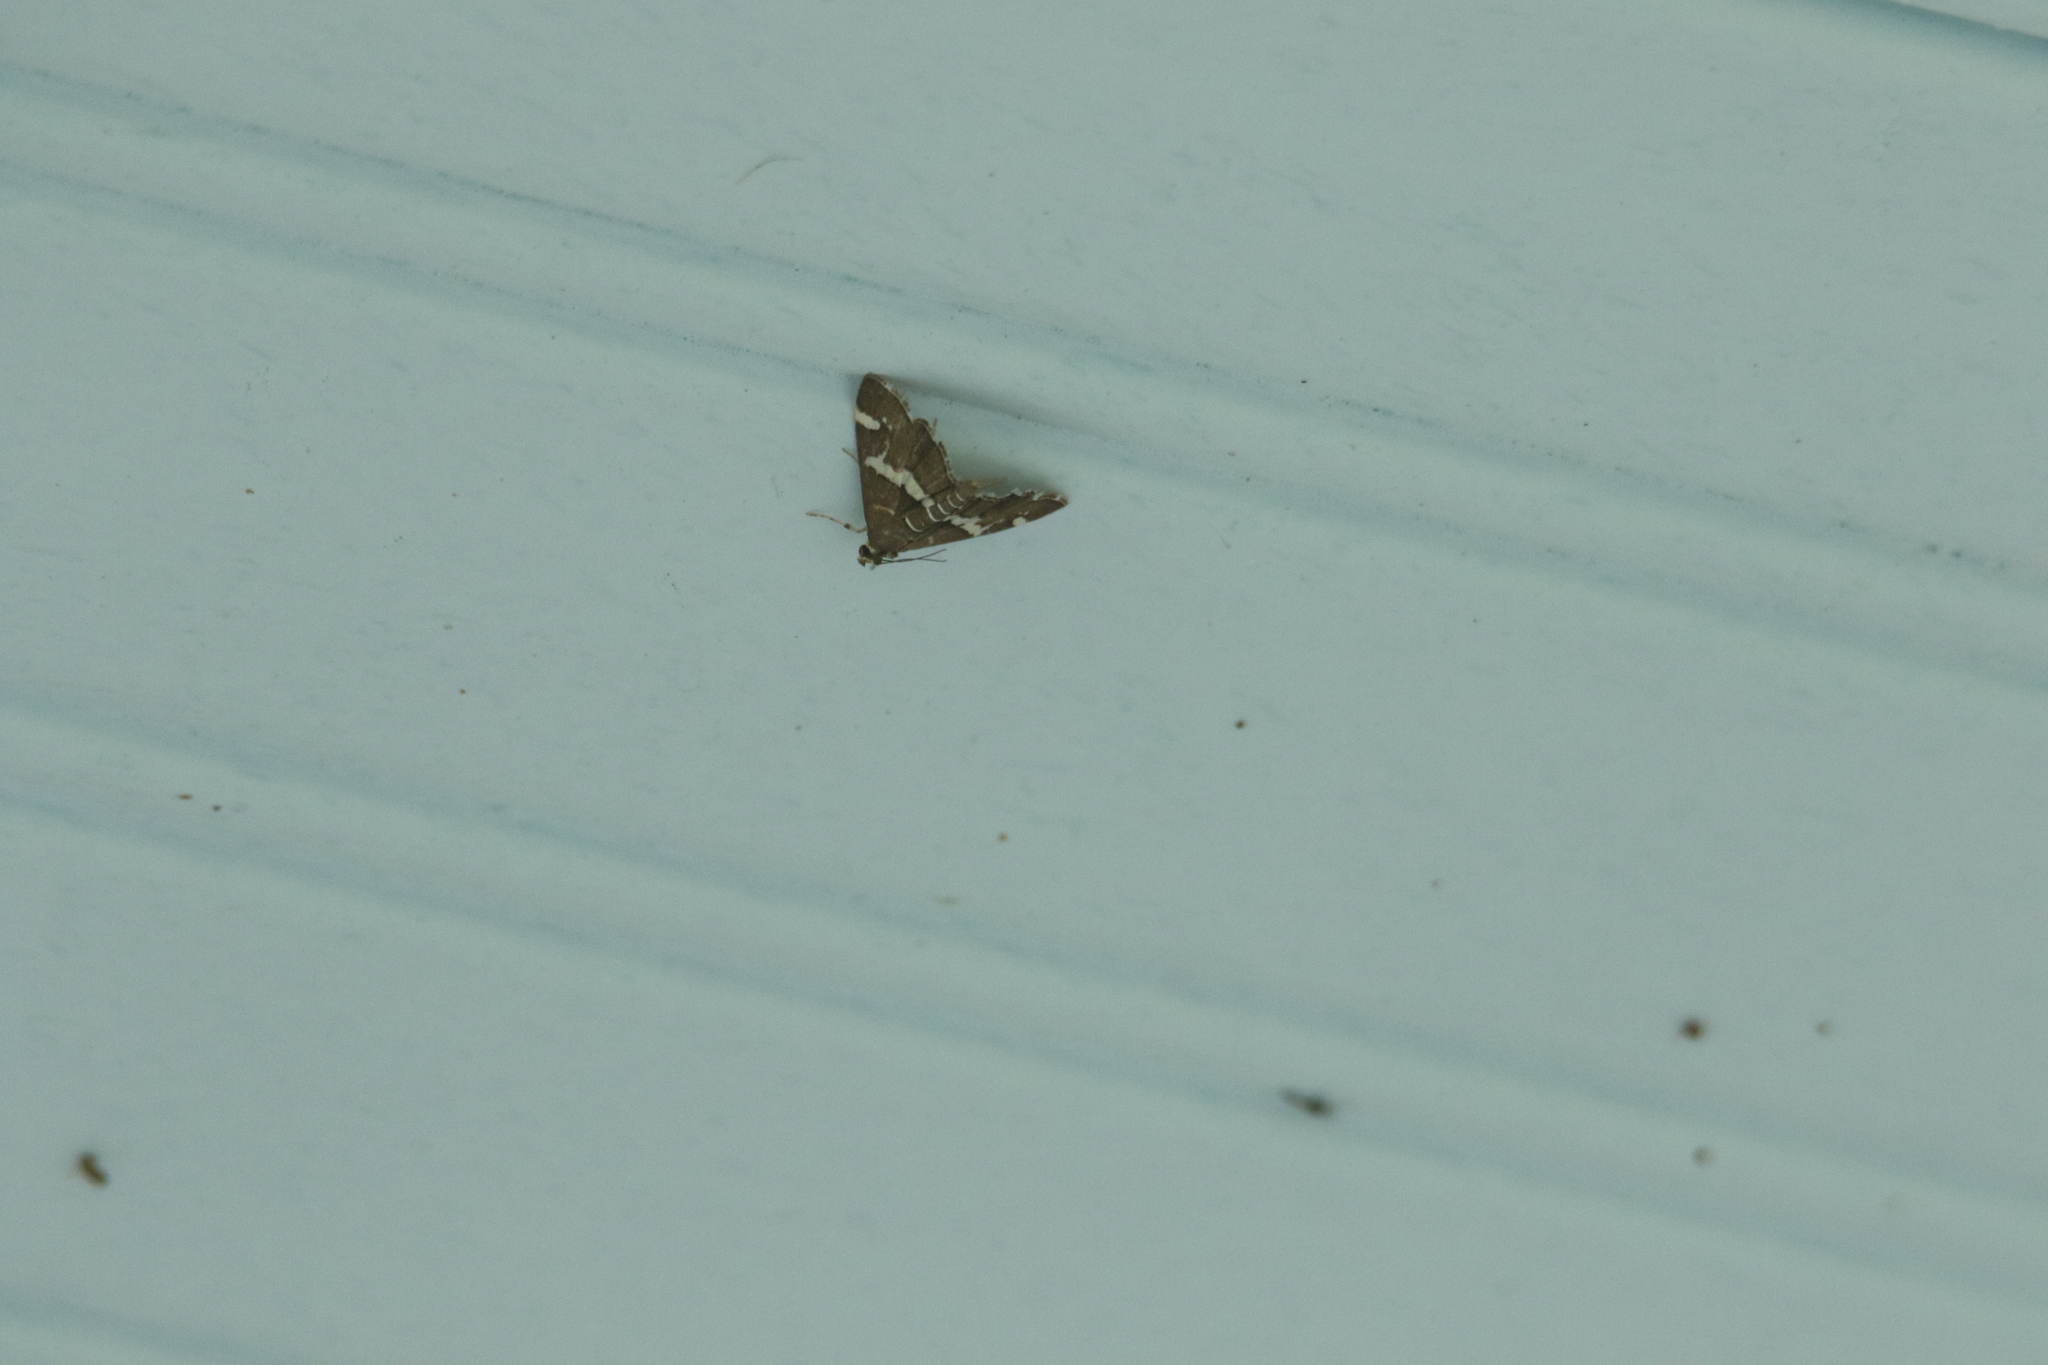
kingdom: Animalia
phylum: Arthropoda
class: Insecta
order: Lepidoptera
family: Crambidae
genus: Spoladea
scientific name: Spoladea recurvalis
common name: Beet webworm moth
